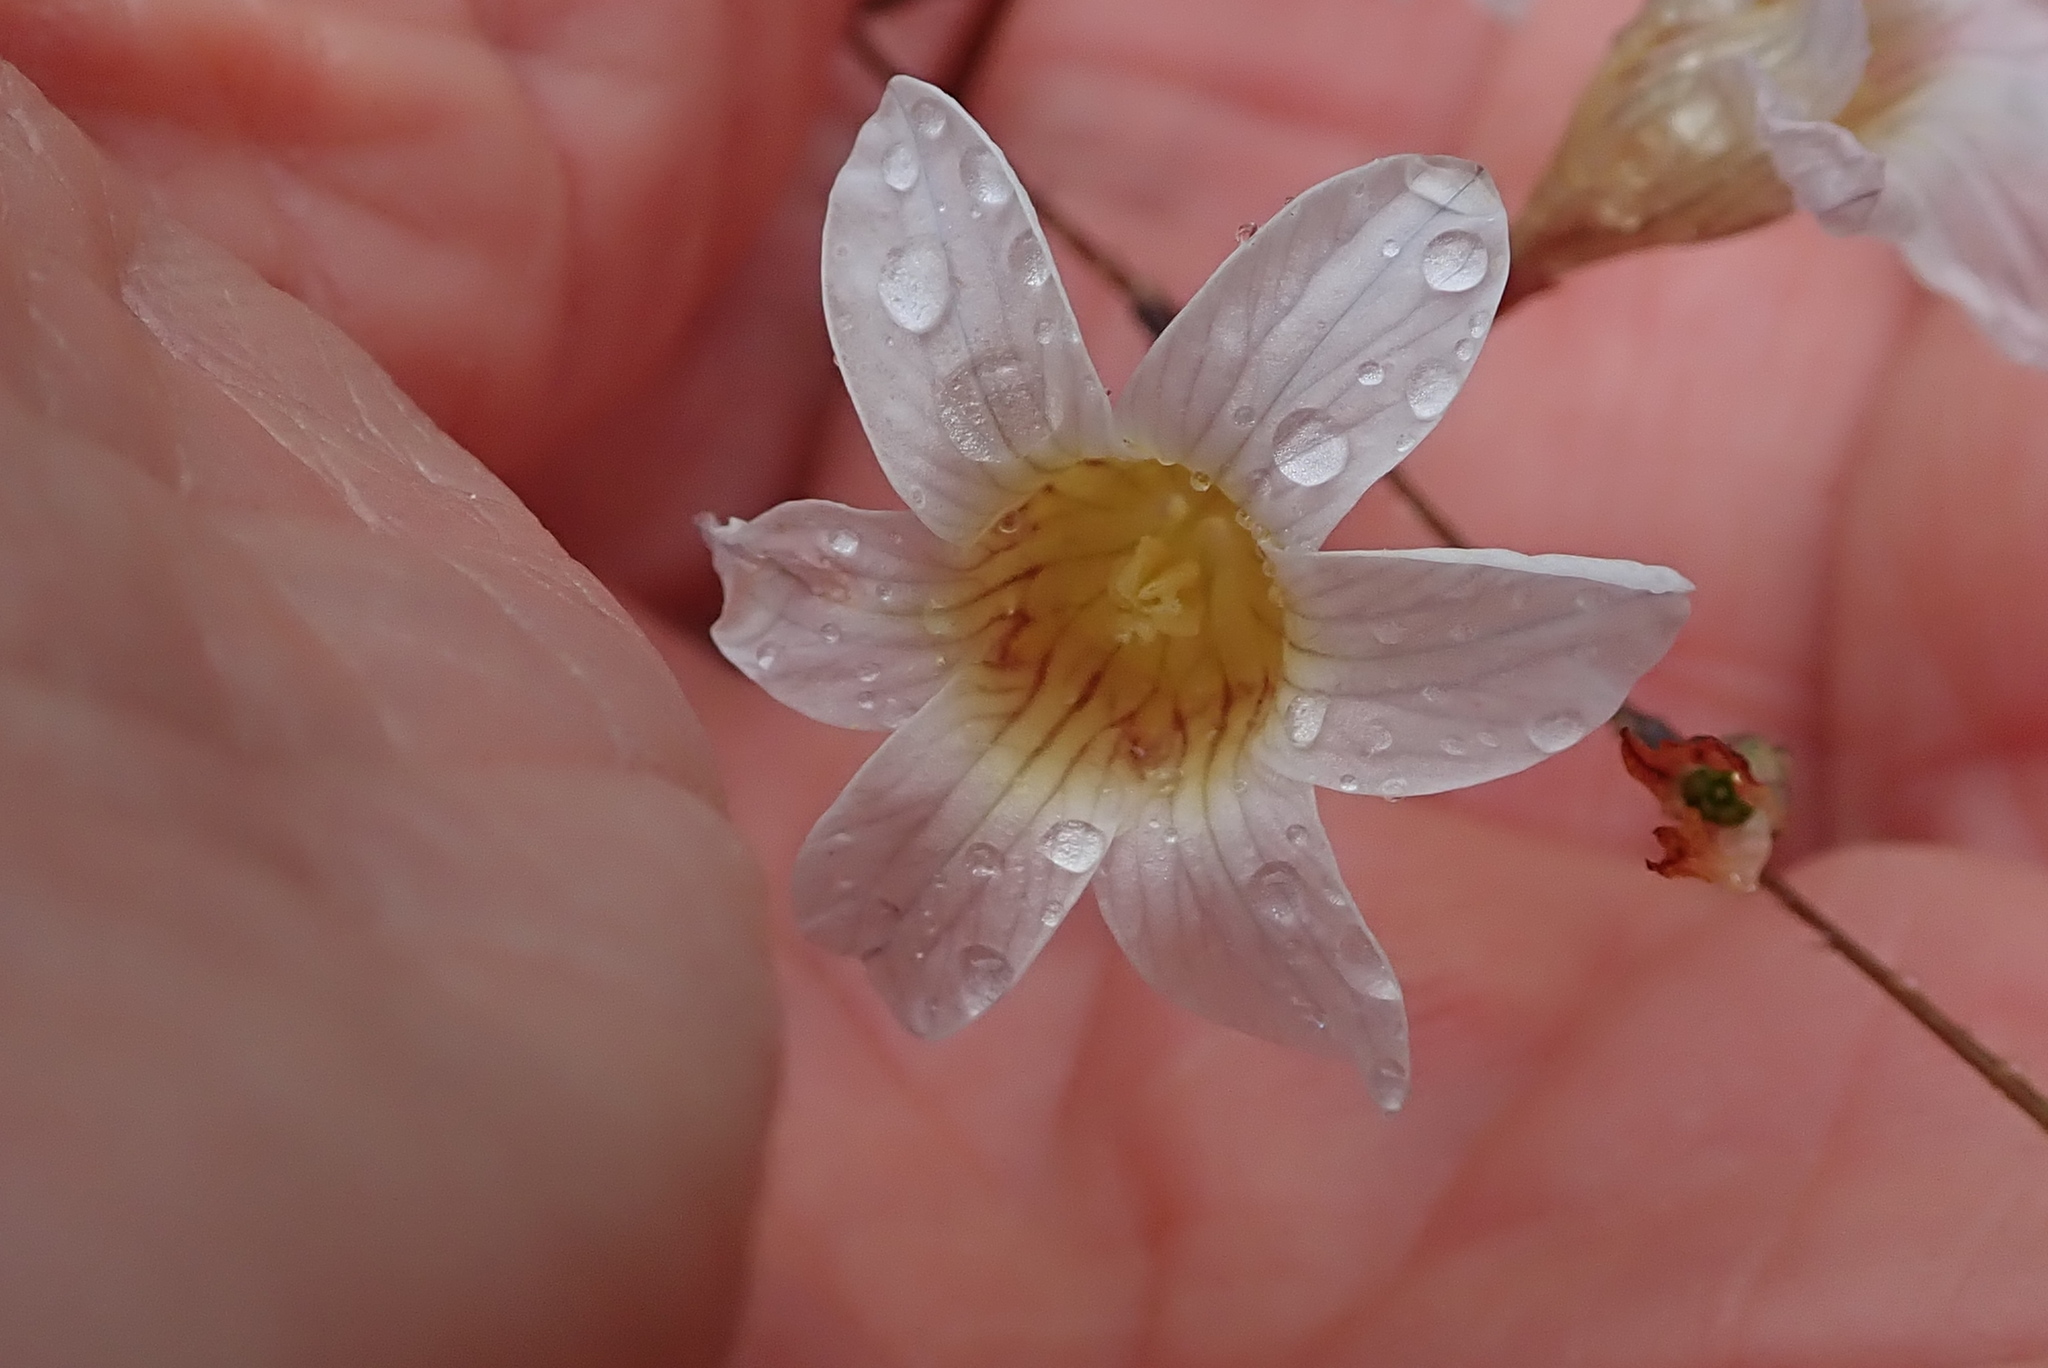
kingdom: Plantae
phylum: Tracheophyta
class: Liliopsida
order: Asparagales
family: Iridaceae
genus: Ixia
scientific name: Ixia namaquana
